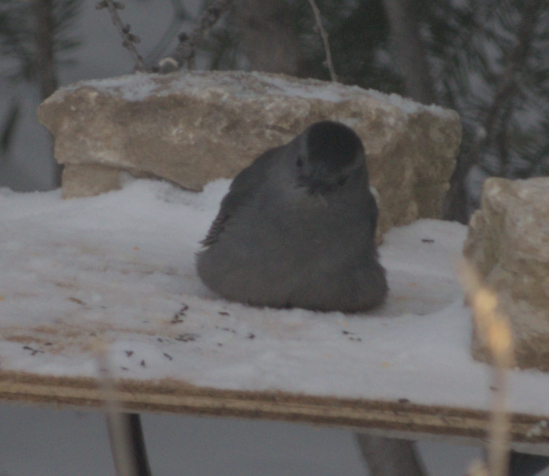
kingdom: Animalia
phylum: Chordata
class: Aves
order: Passeriformes
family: Mimidae
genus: Dumetella
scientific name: Dumetella carolinensis
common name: Gray catbird
